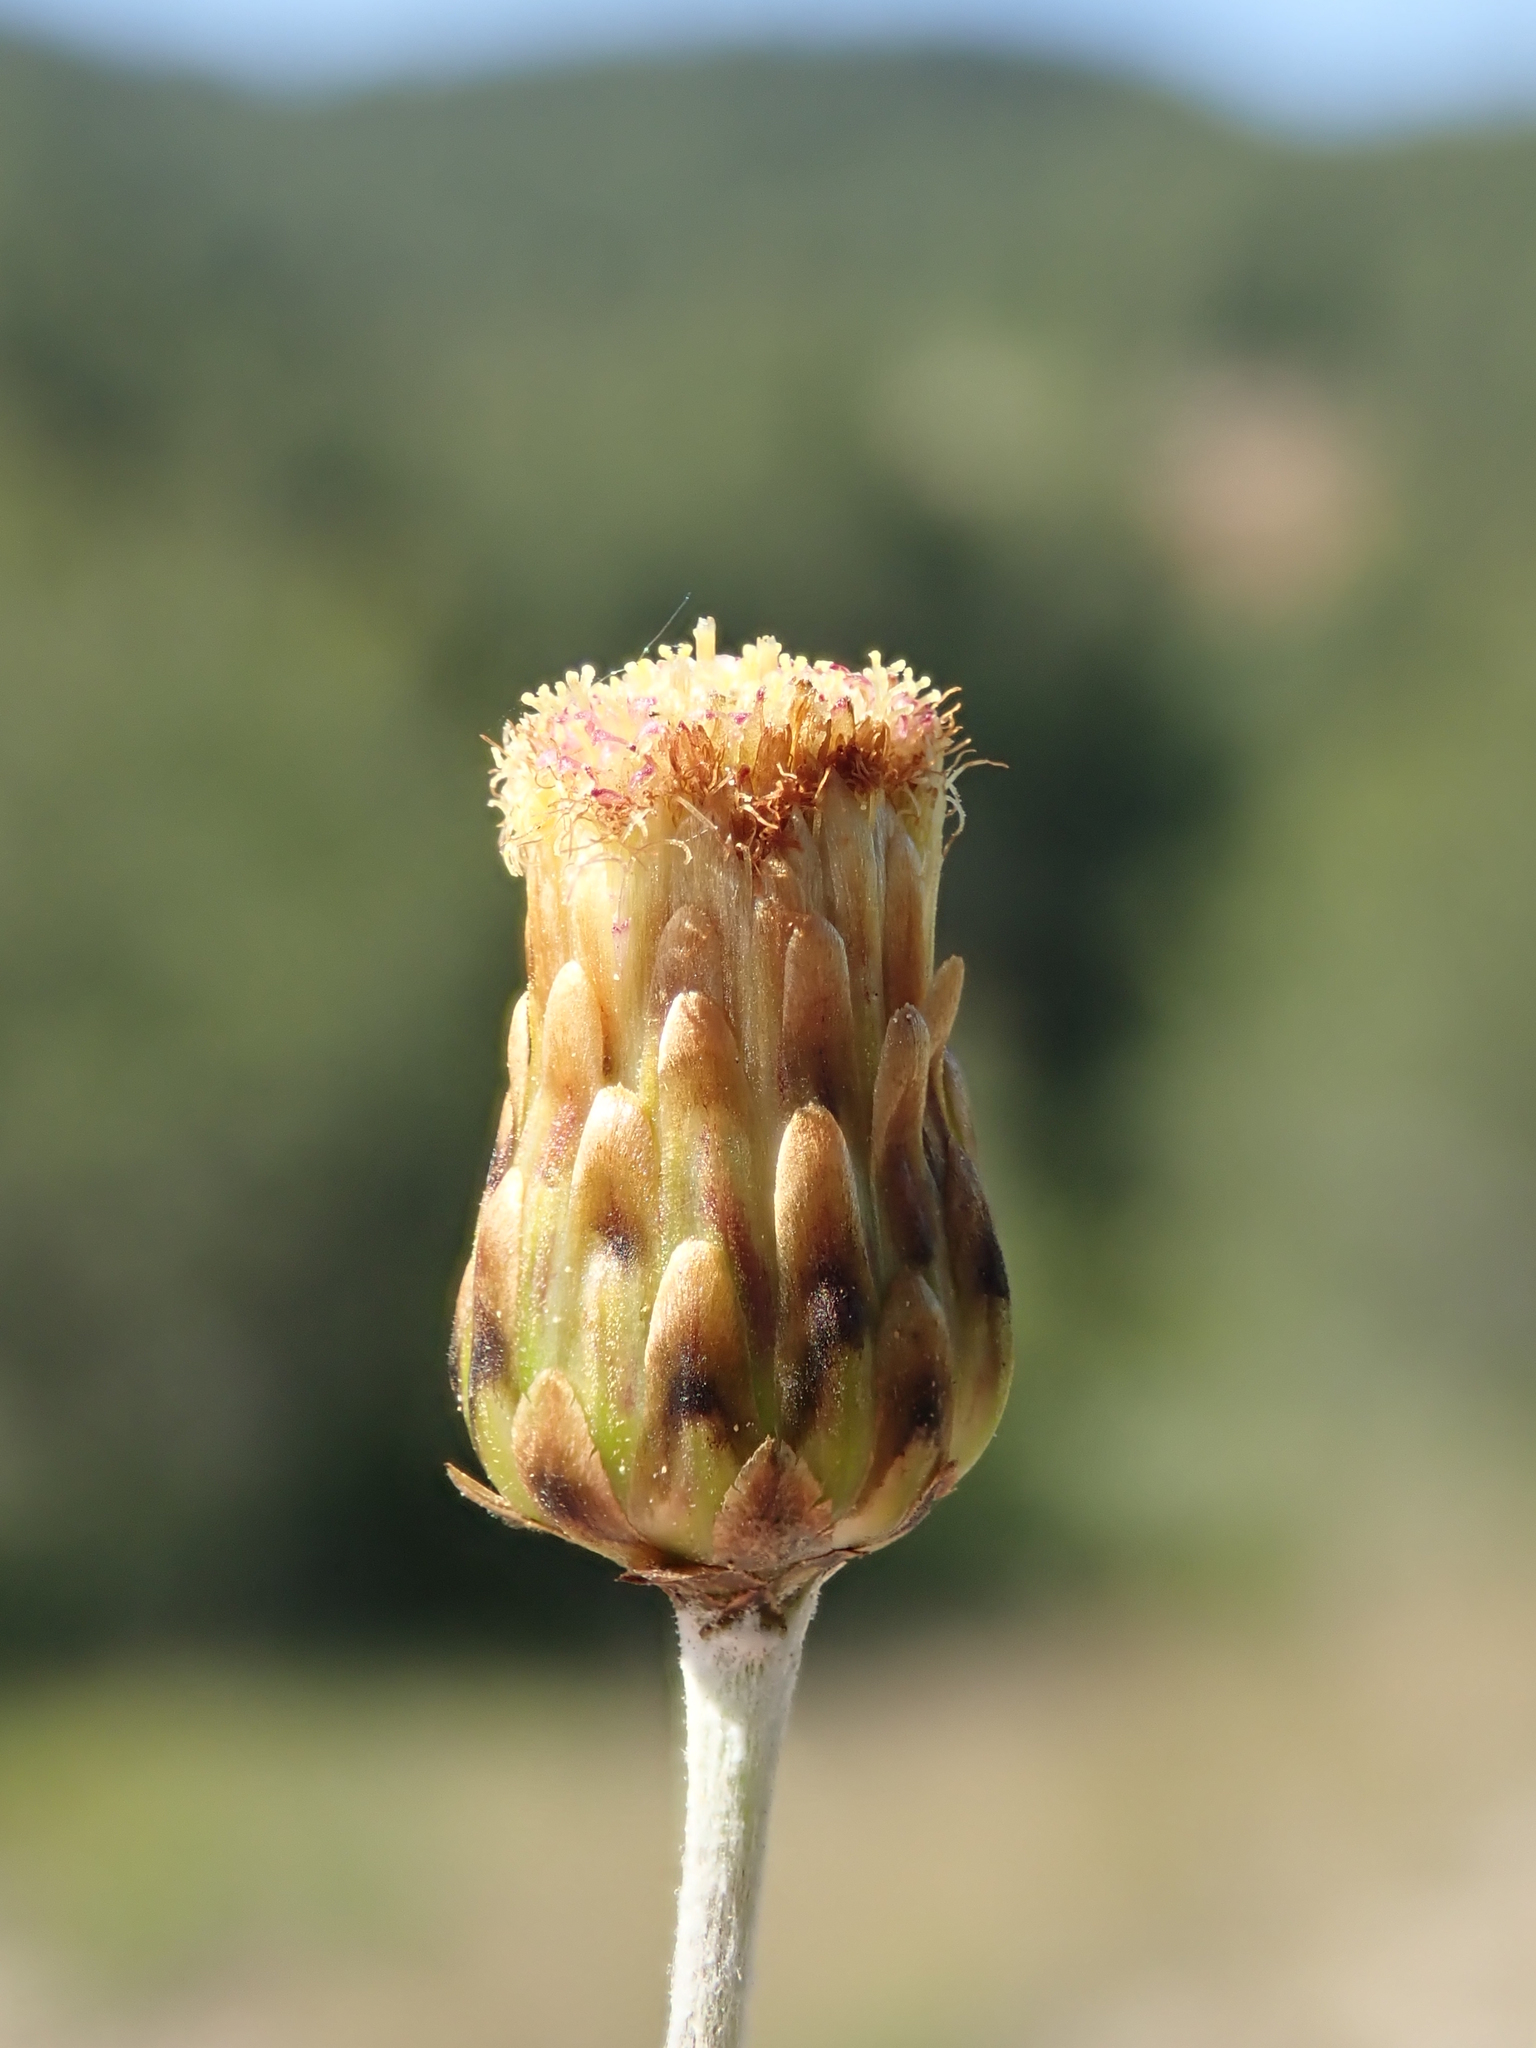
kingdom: Plantae
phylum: Tracheophyta
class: Magnoliopsida
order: Asterales
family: Asteraceae
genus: Phagnalon
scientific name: Phagnalon rupestre
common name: Rock phagnalon
